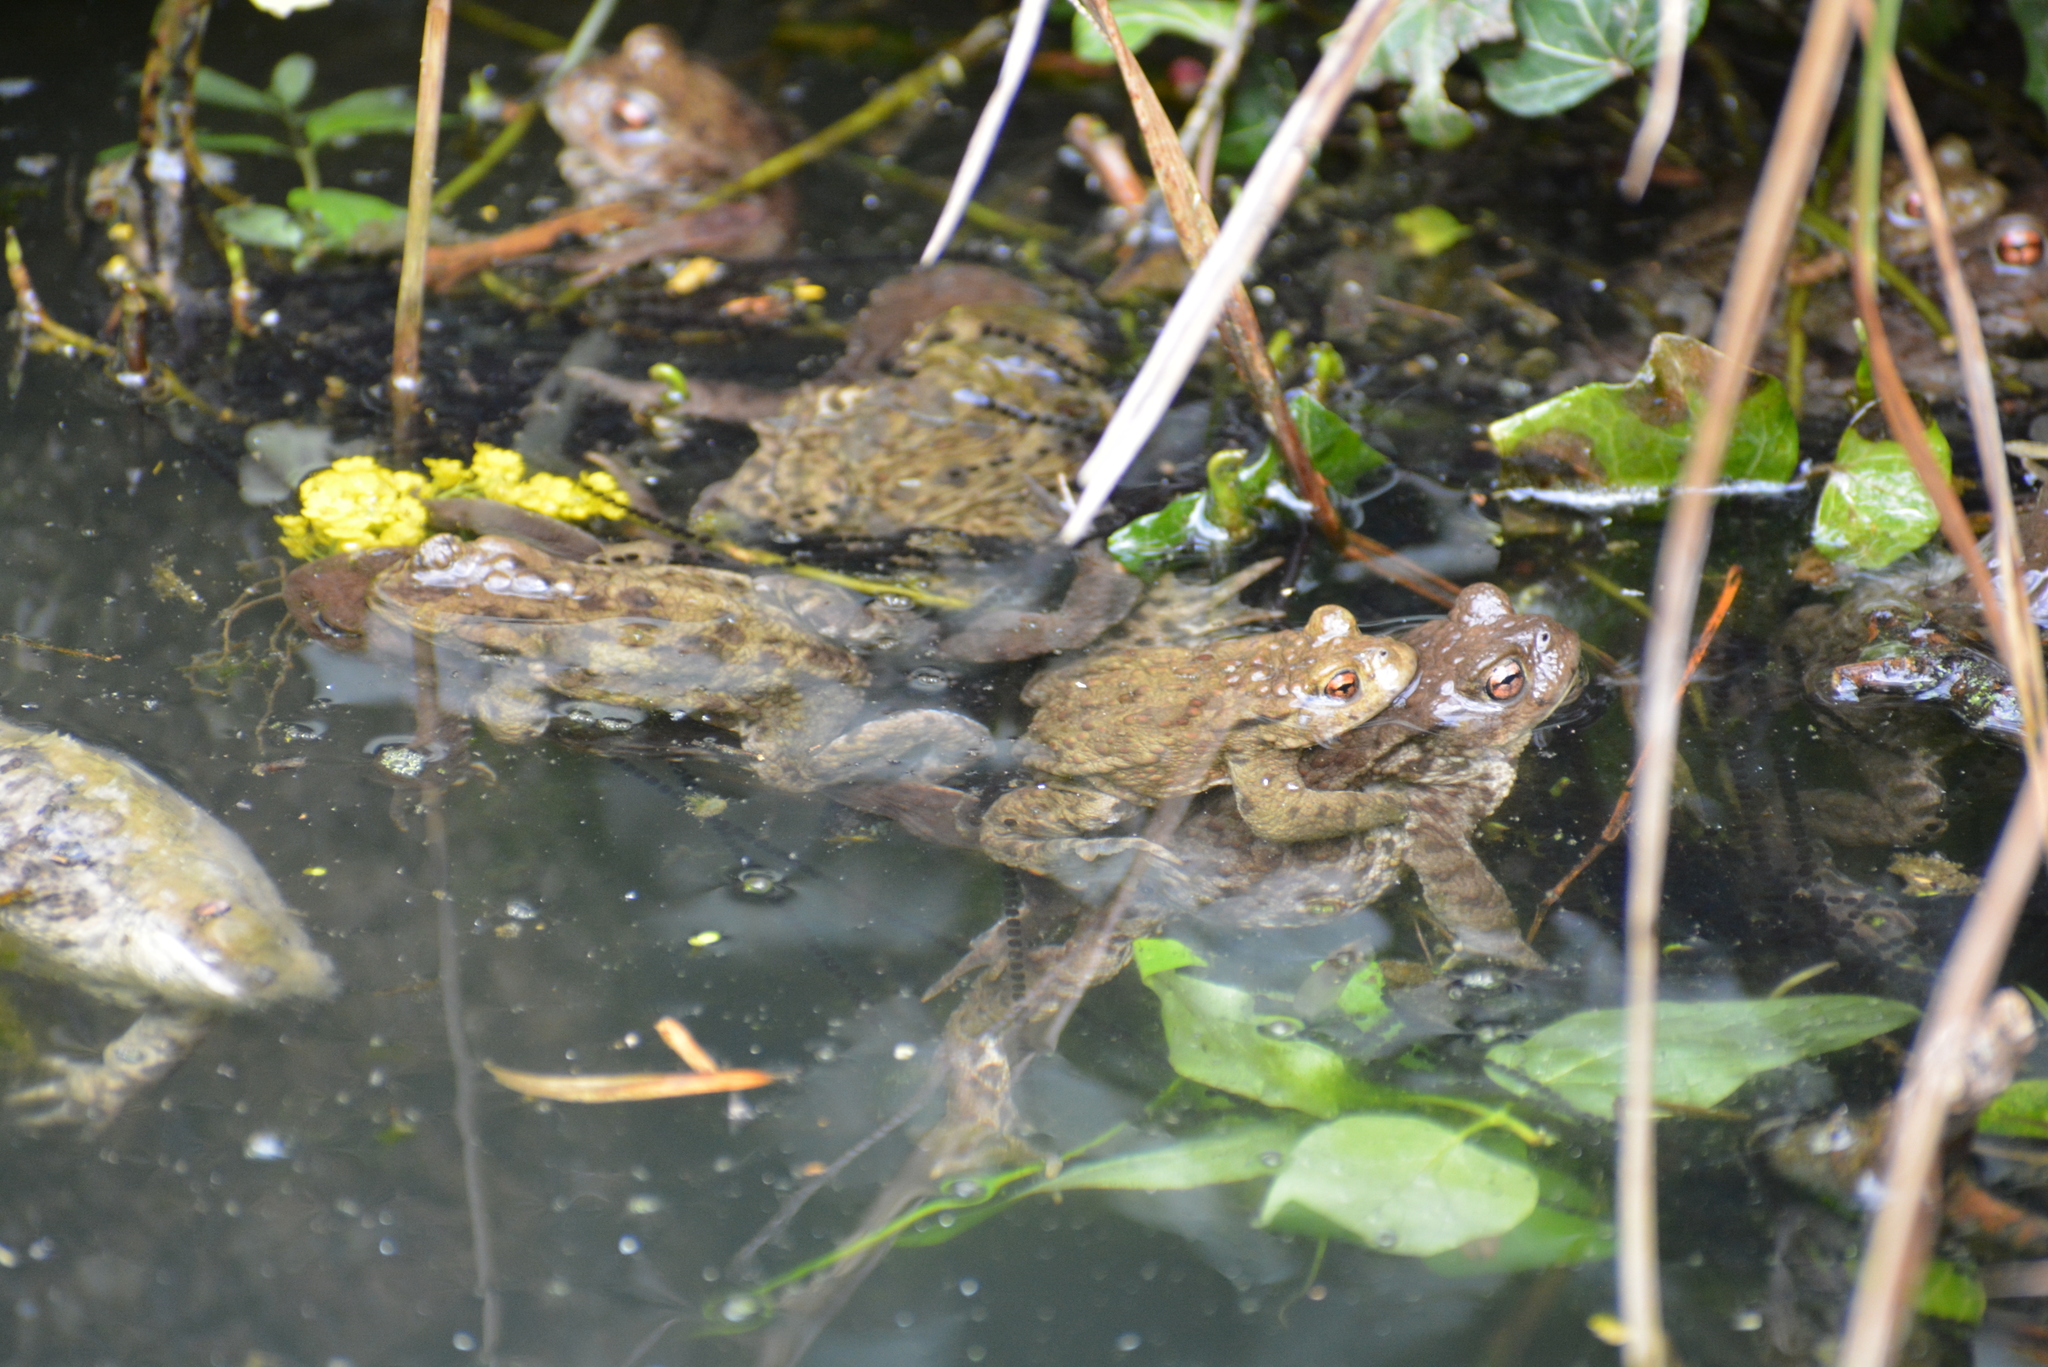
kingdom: Animalia
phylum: Chordata
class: Amphibia
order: Anura
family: Bufonidae
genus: Bufo
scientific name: Bufo bufo
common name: Common toad
